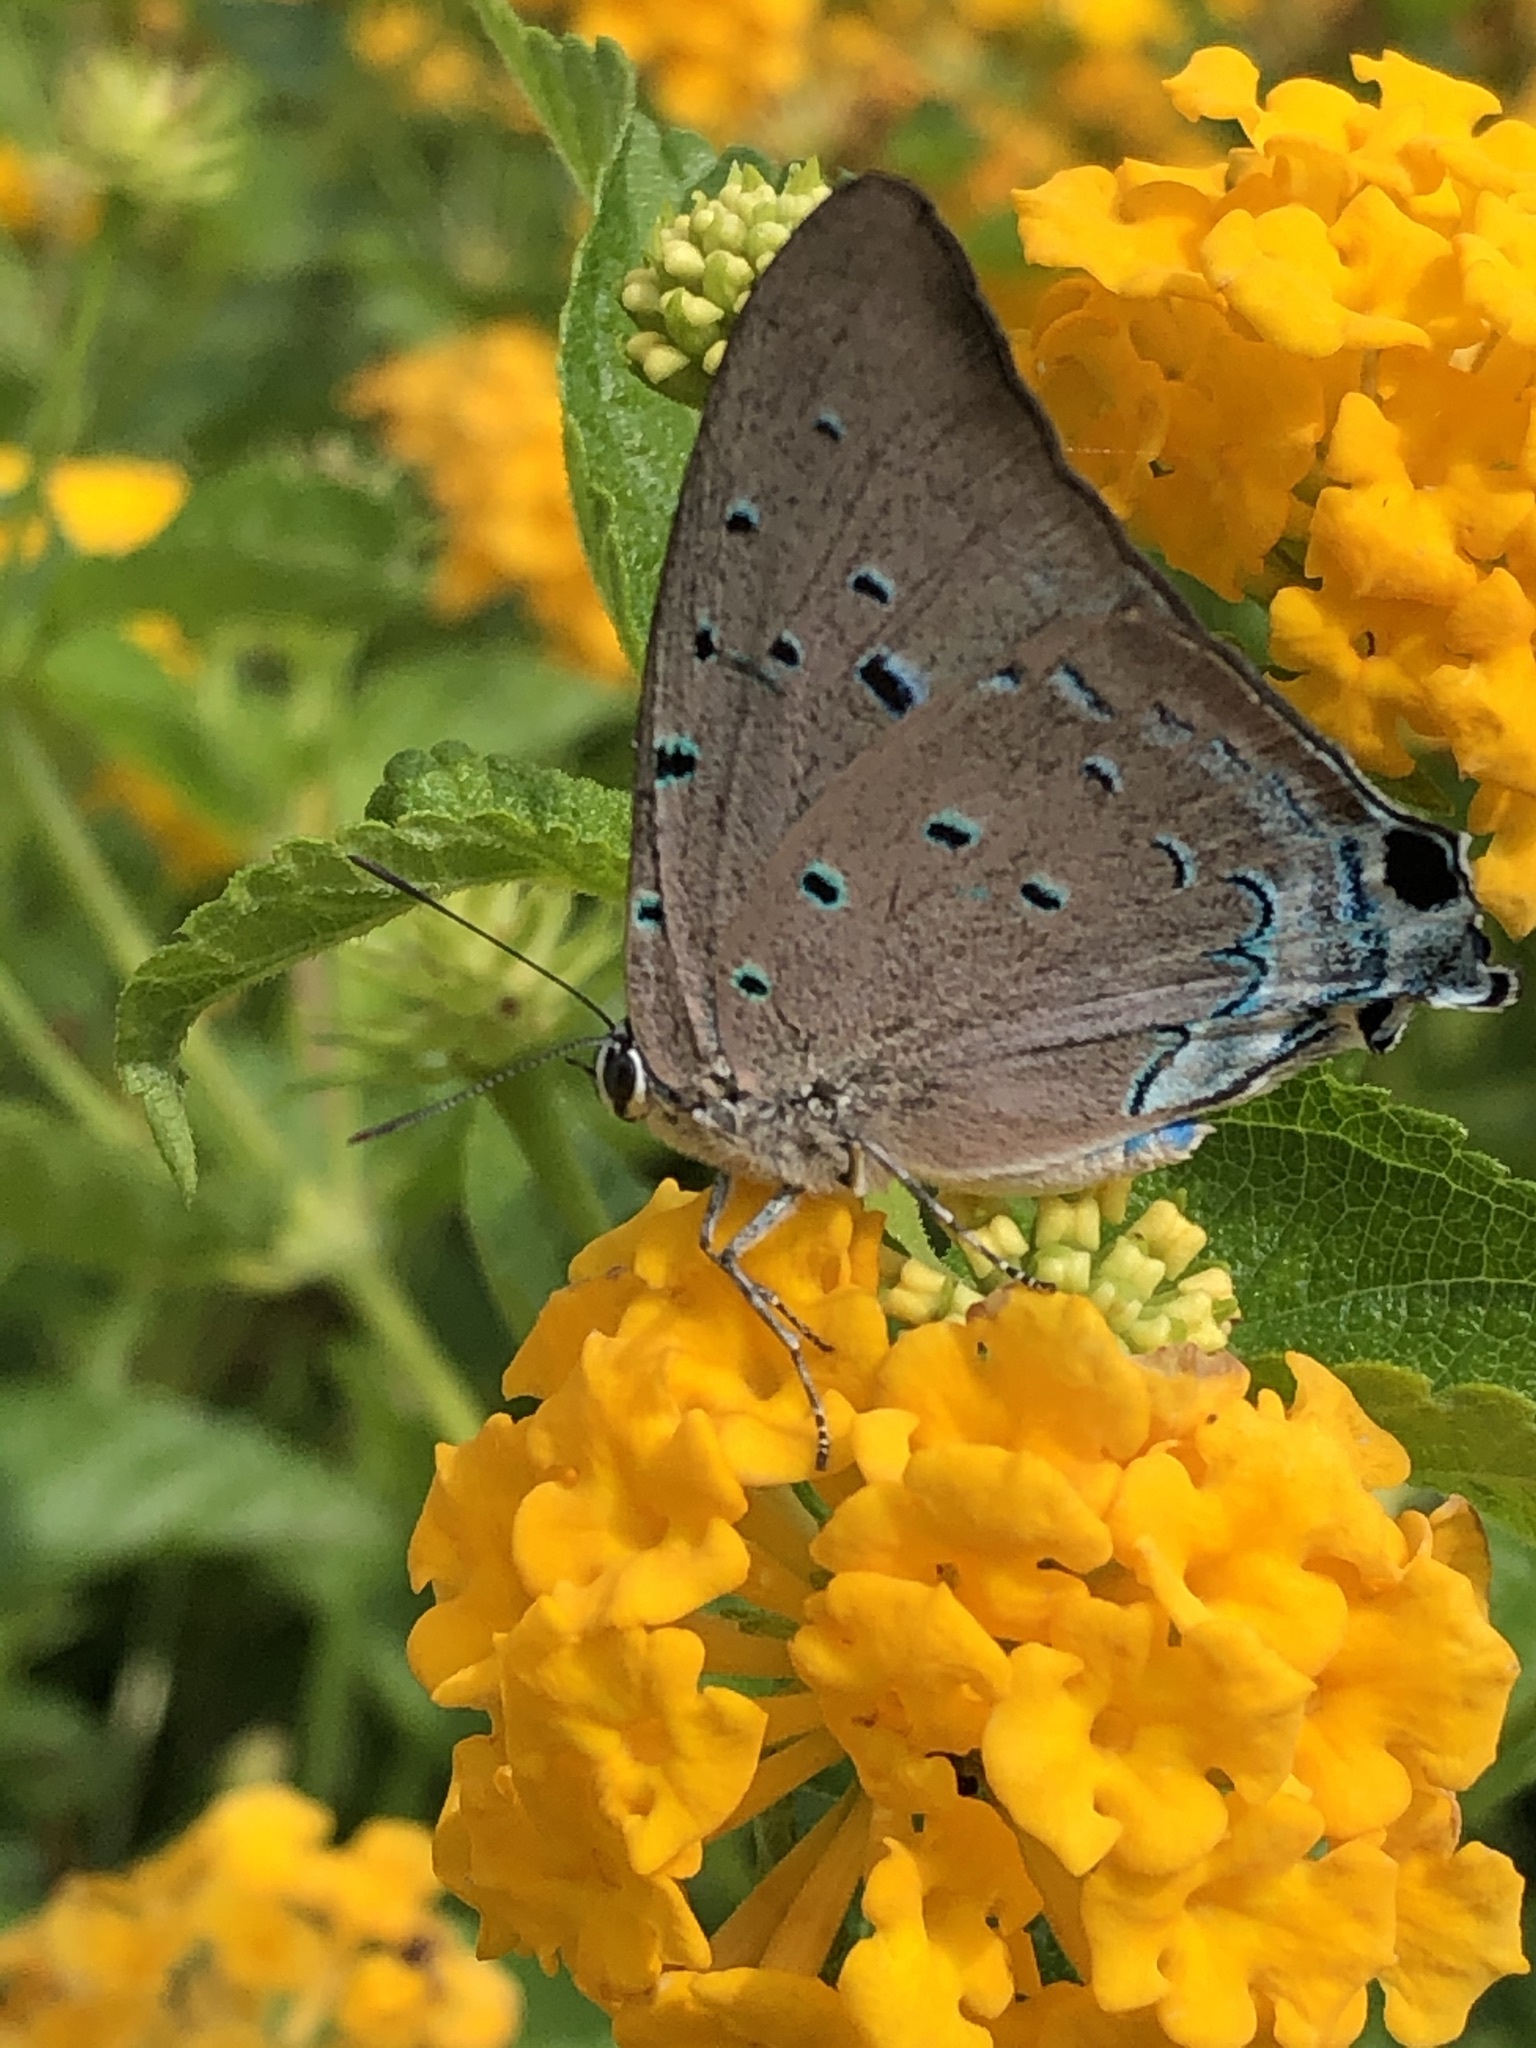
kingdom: Animalia
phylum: Arthropoda
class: Insecta
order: Lepidoptera
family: Lycaenidae
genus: Pseudolycaena
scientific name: Pseudolycaena marsyas
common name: Marsyas hairstreak
